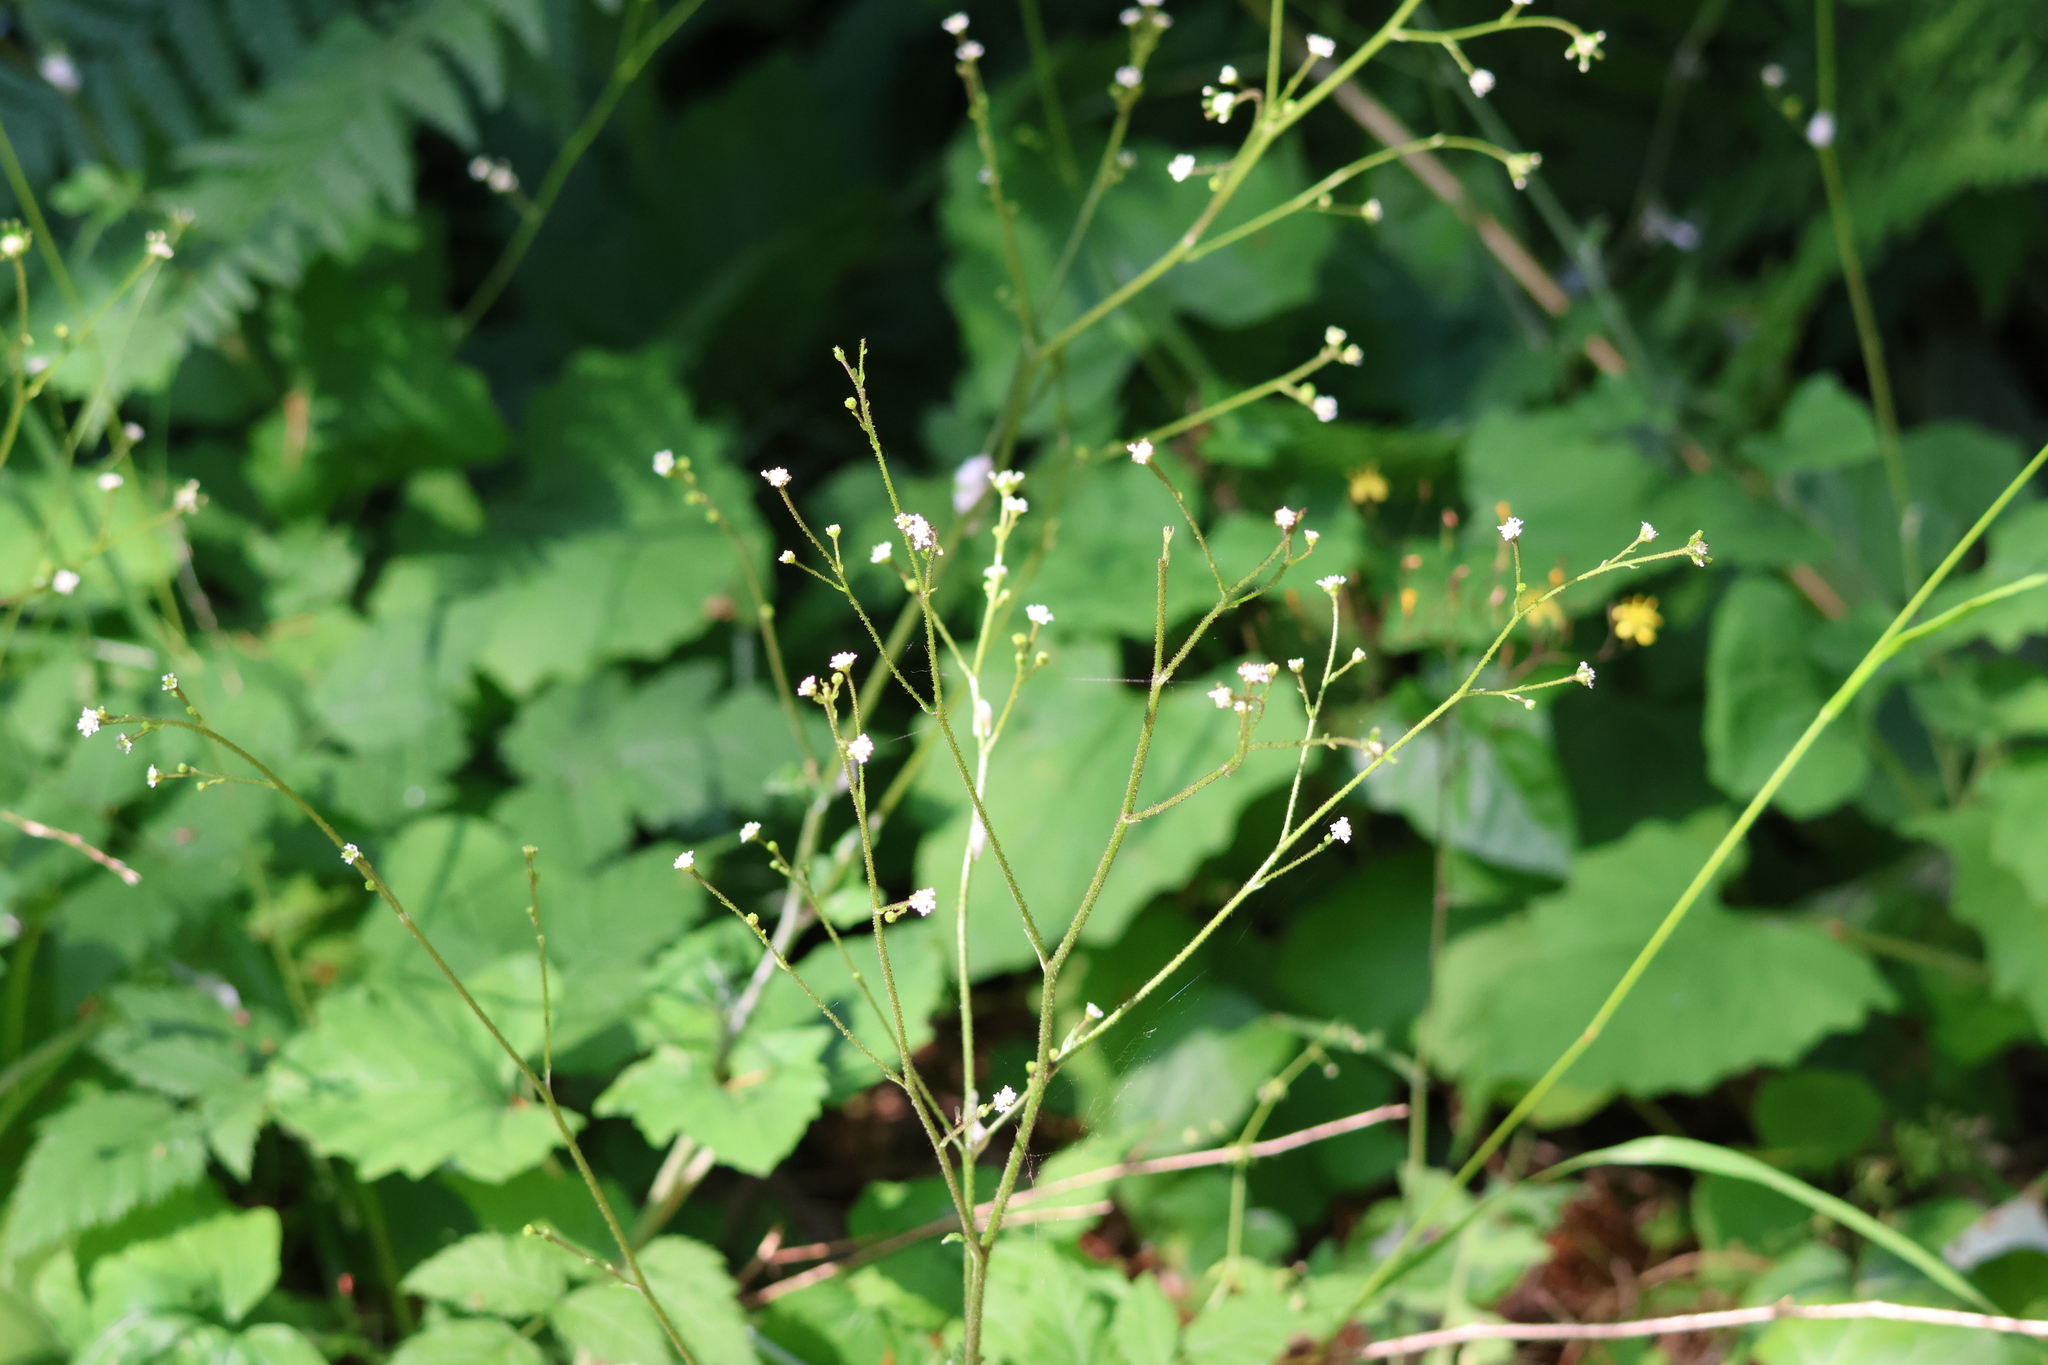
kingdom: Plantae
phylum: Tracheophyta
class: Magnoliopsida
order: Asterales
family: Asteraceae
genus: Adenocaulon
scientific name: Adenocaulon bicolor
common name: Trailplant
